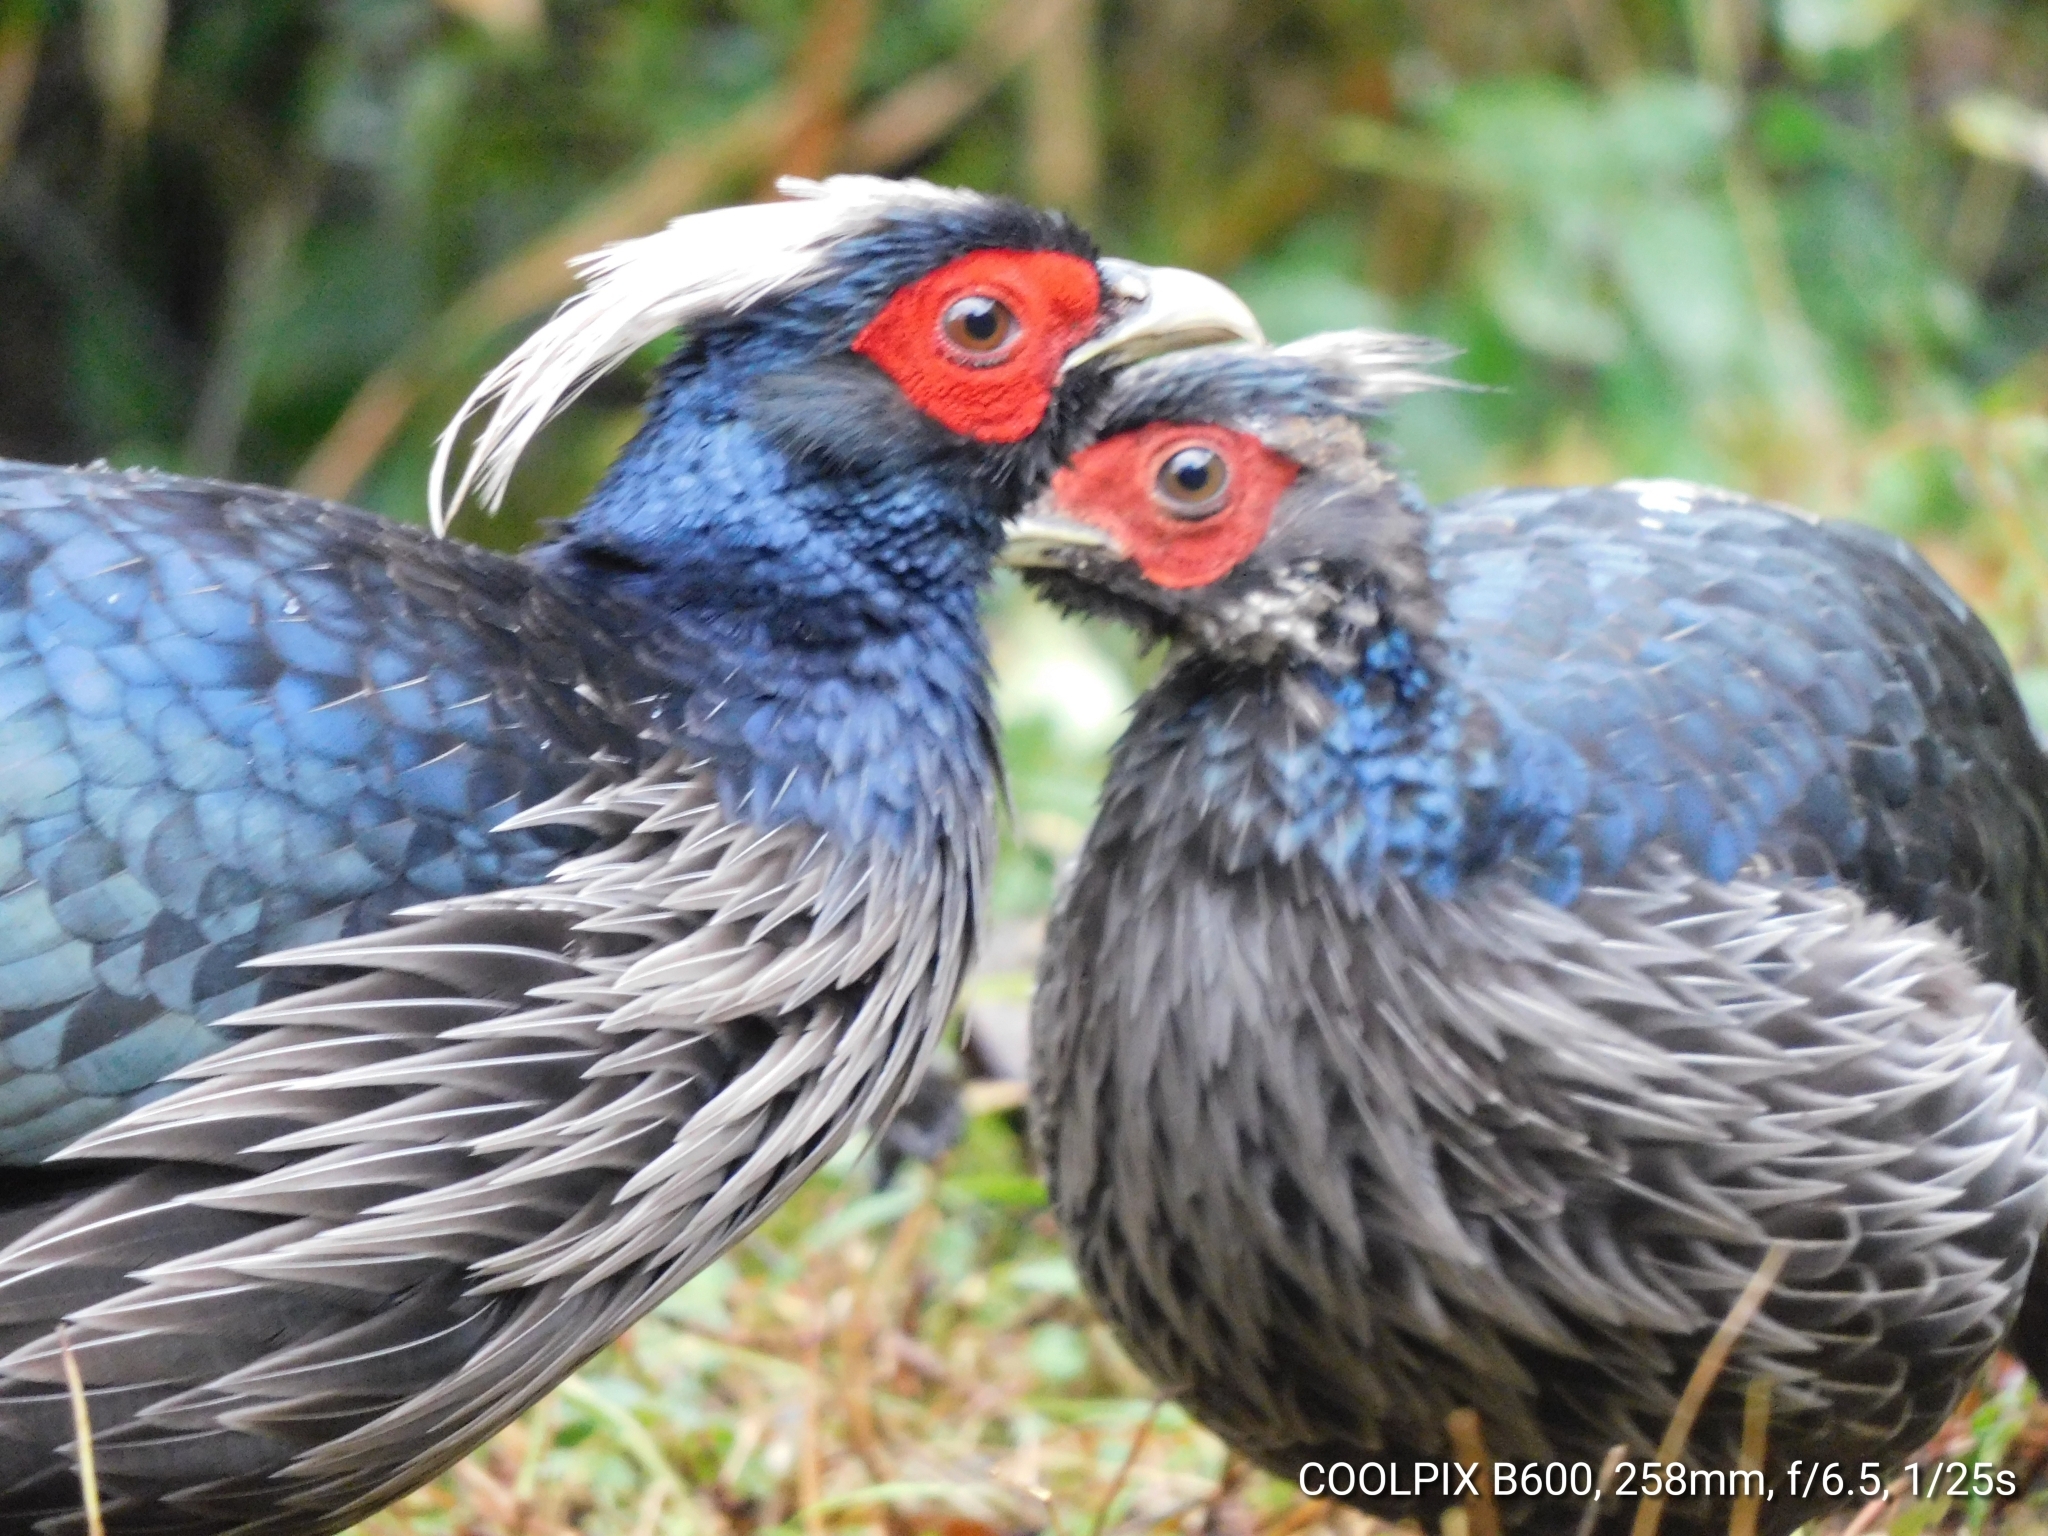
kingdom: Animalia
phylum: Chordata
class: Aves
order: Galliformes
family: Phasianidae
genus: Lophura
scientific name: Lophura leucomelanos
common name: Kalij pheasant
